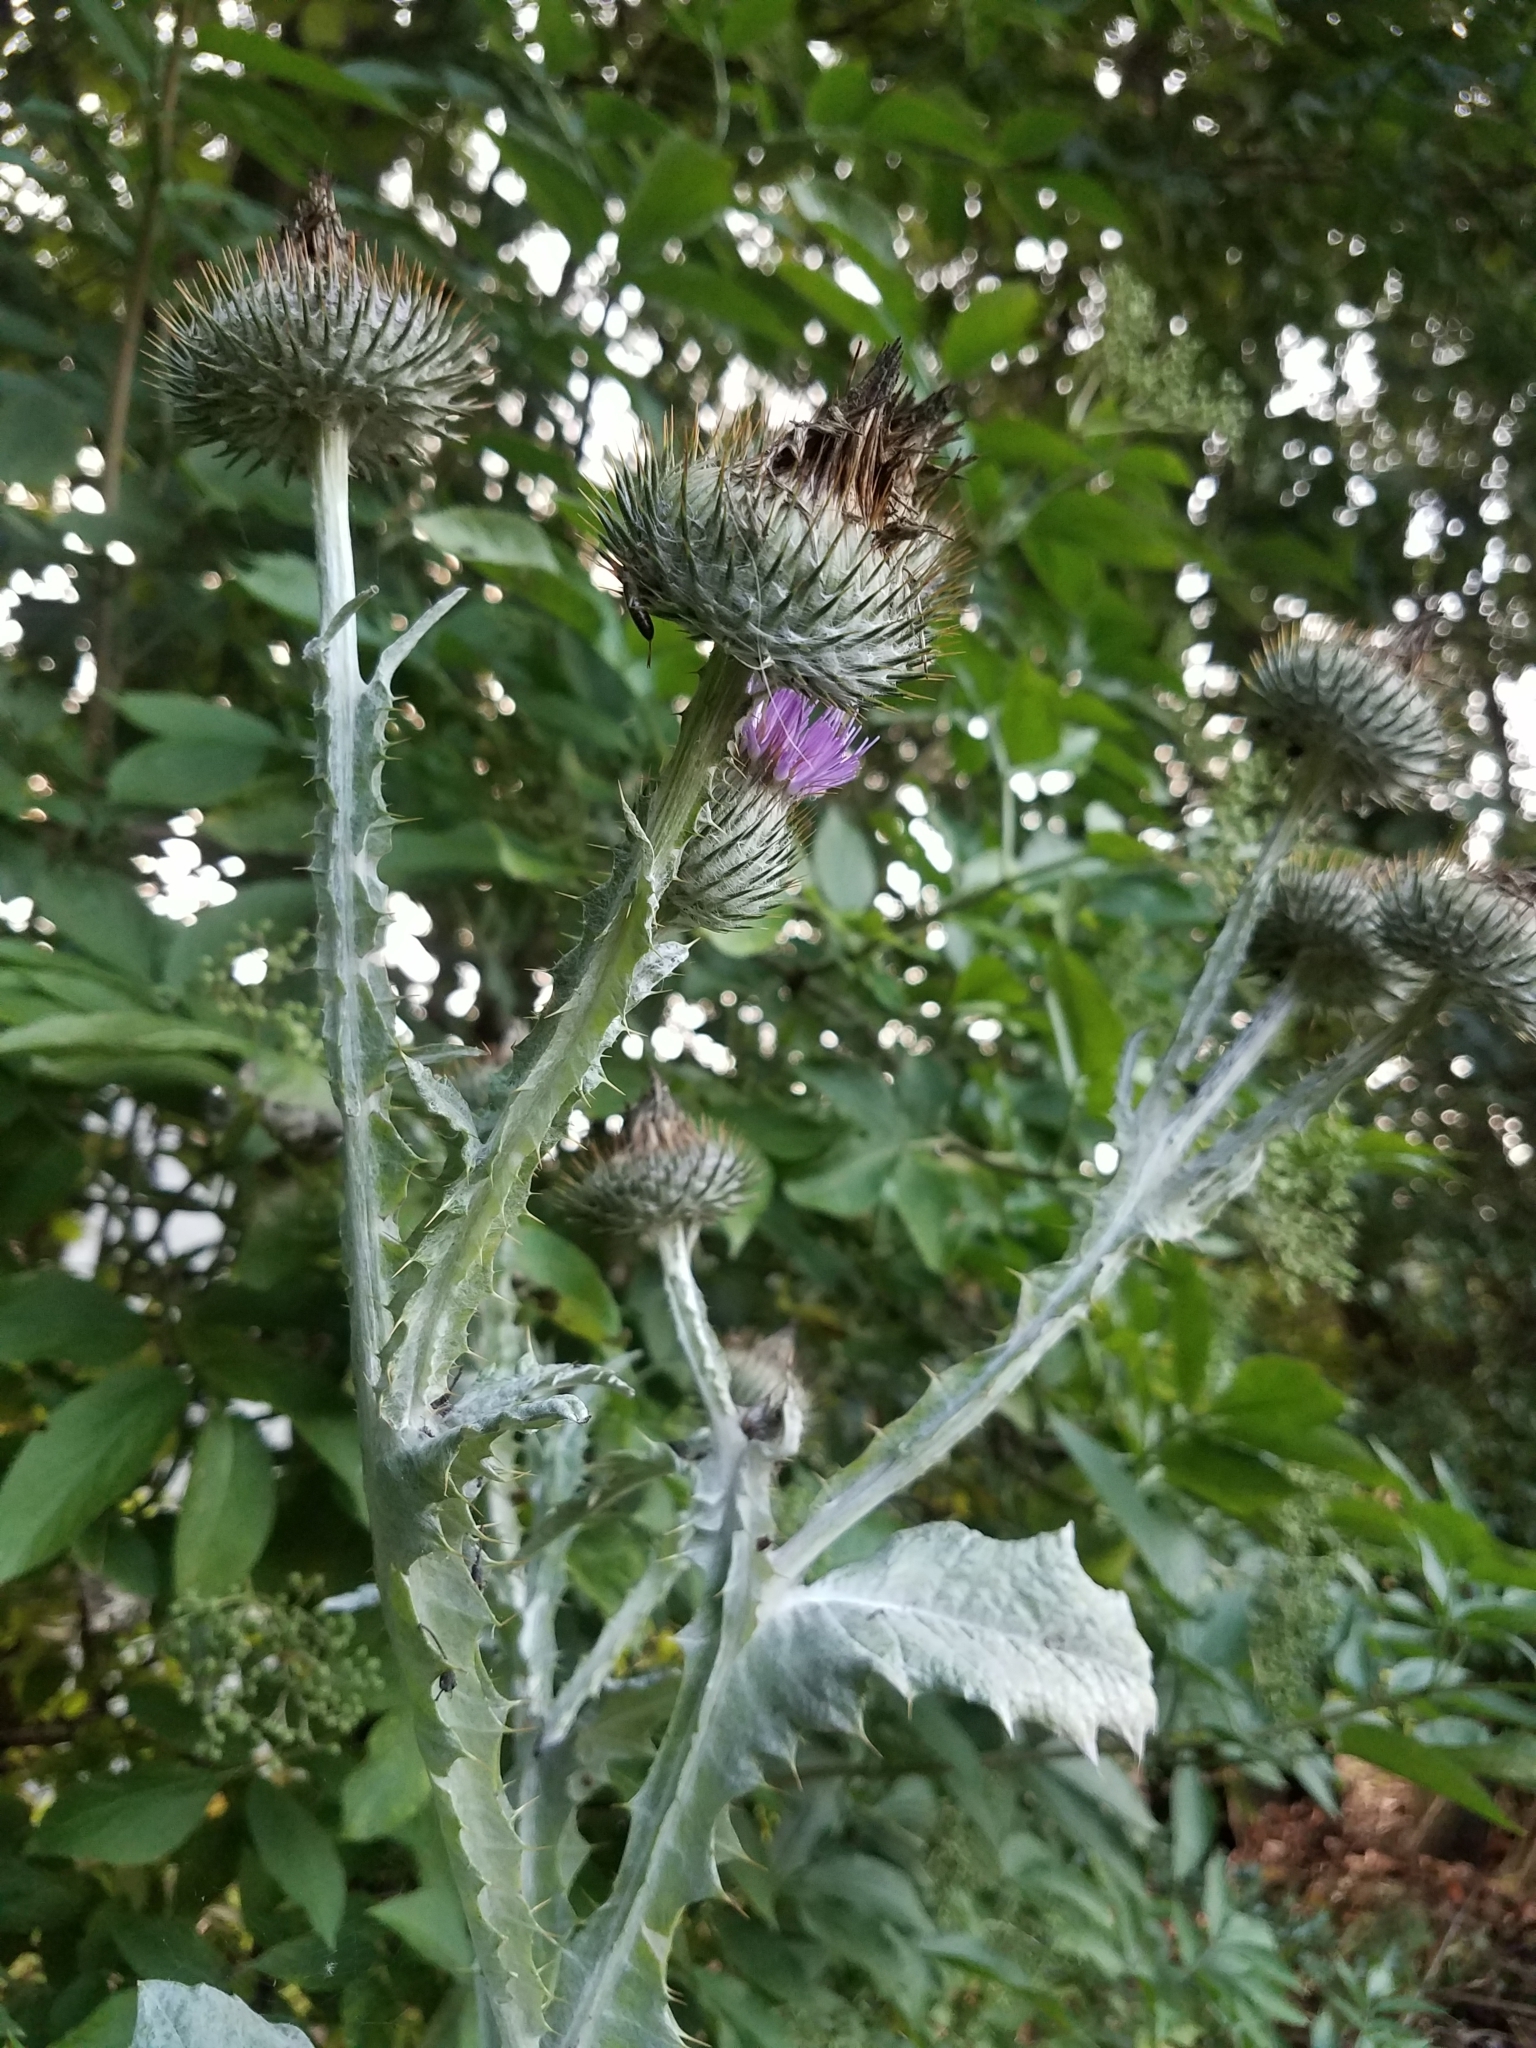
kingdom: Plantae
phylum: Tracheophyta
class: Magnoliopsida
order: Asterales
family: Asteraceae
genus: Onopordum
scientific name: Onopordum acanthium
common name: Scotch thistle
